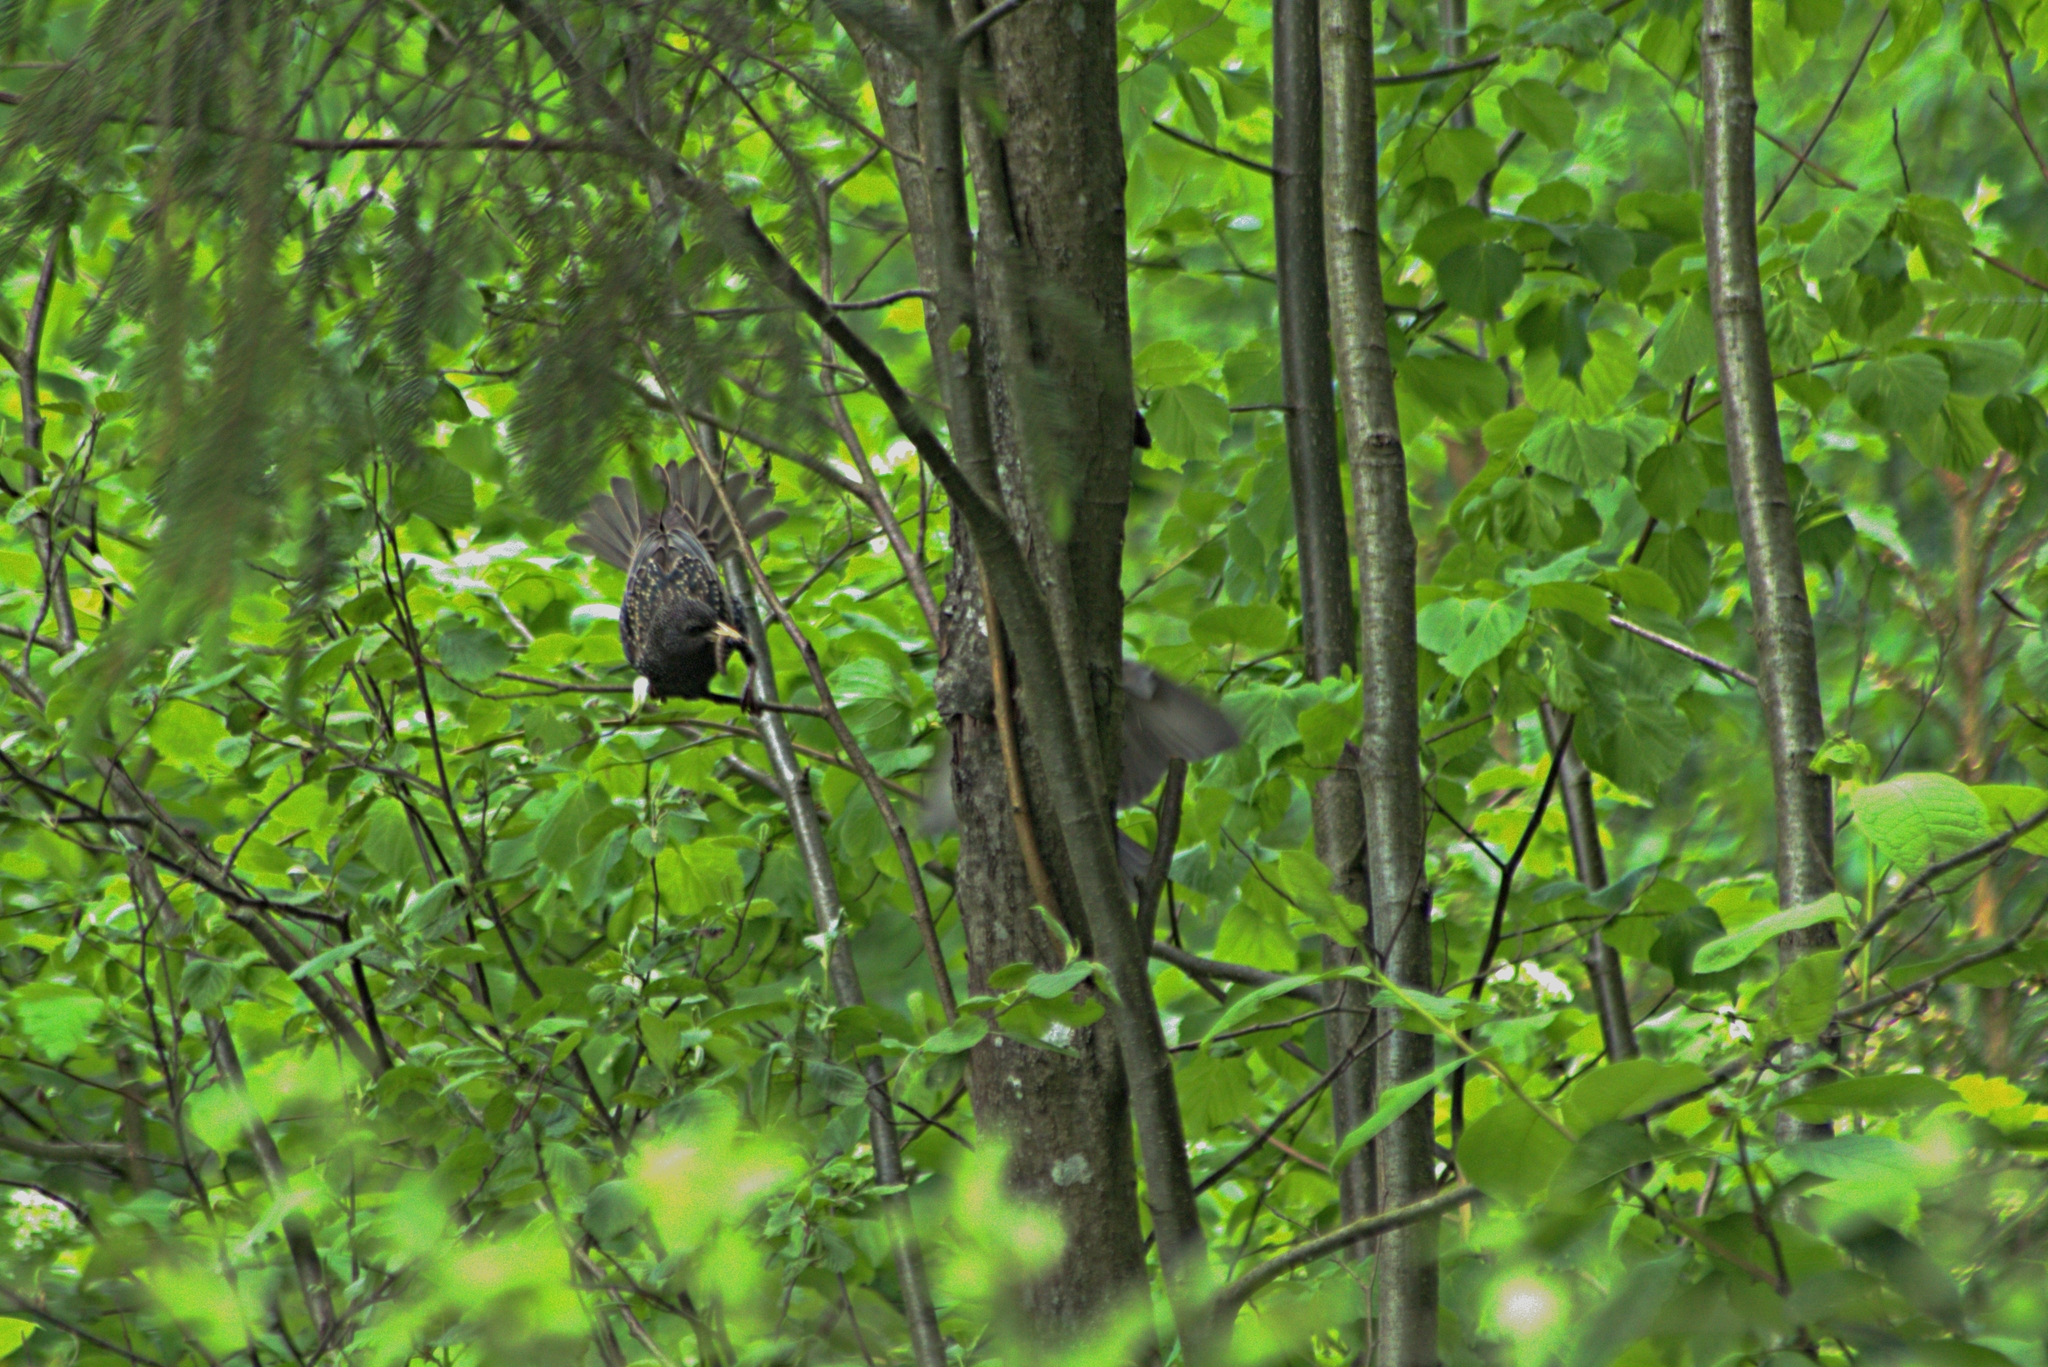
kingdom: Animalia
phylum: Chordata
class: Aves
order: Passeriformes
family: Sturnidae
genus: Sturnus
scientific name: Sturnus vulgaris
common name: Common starling
